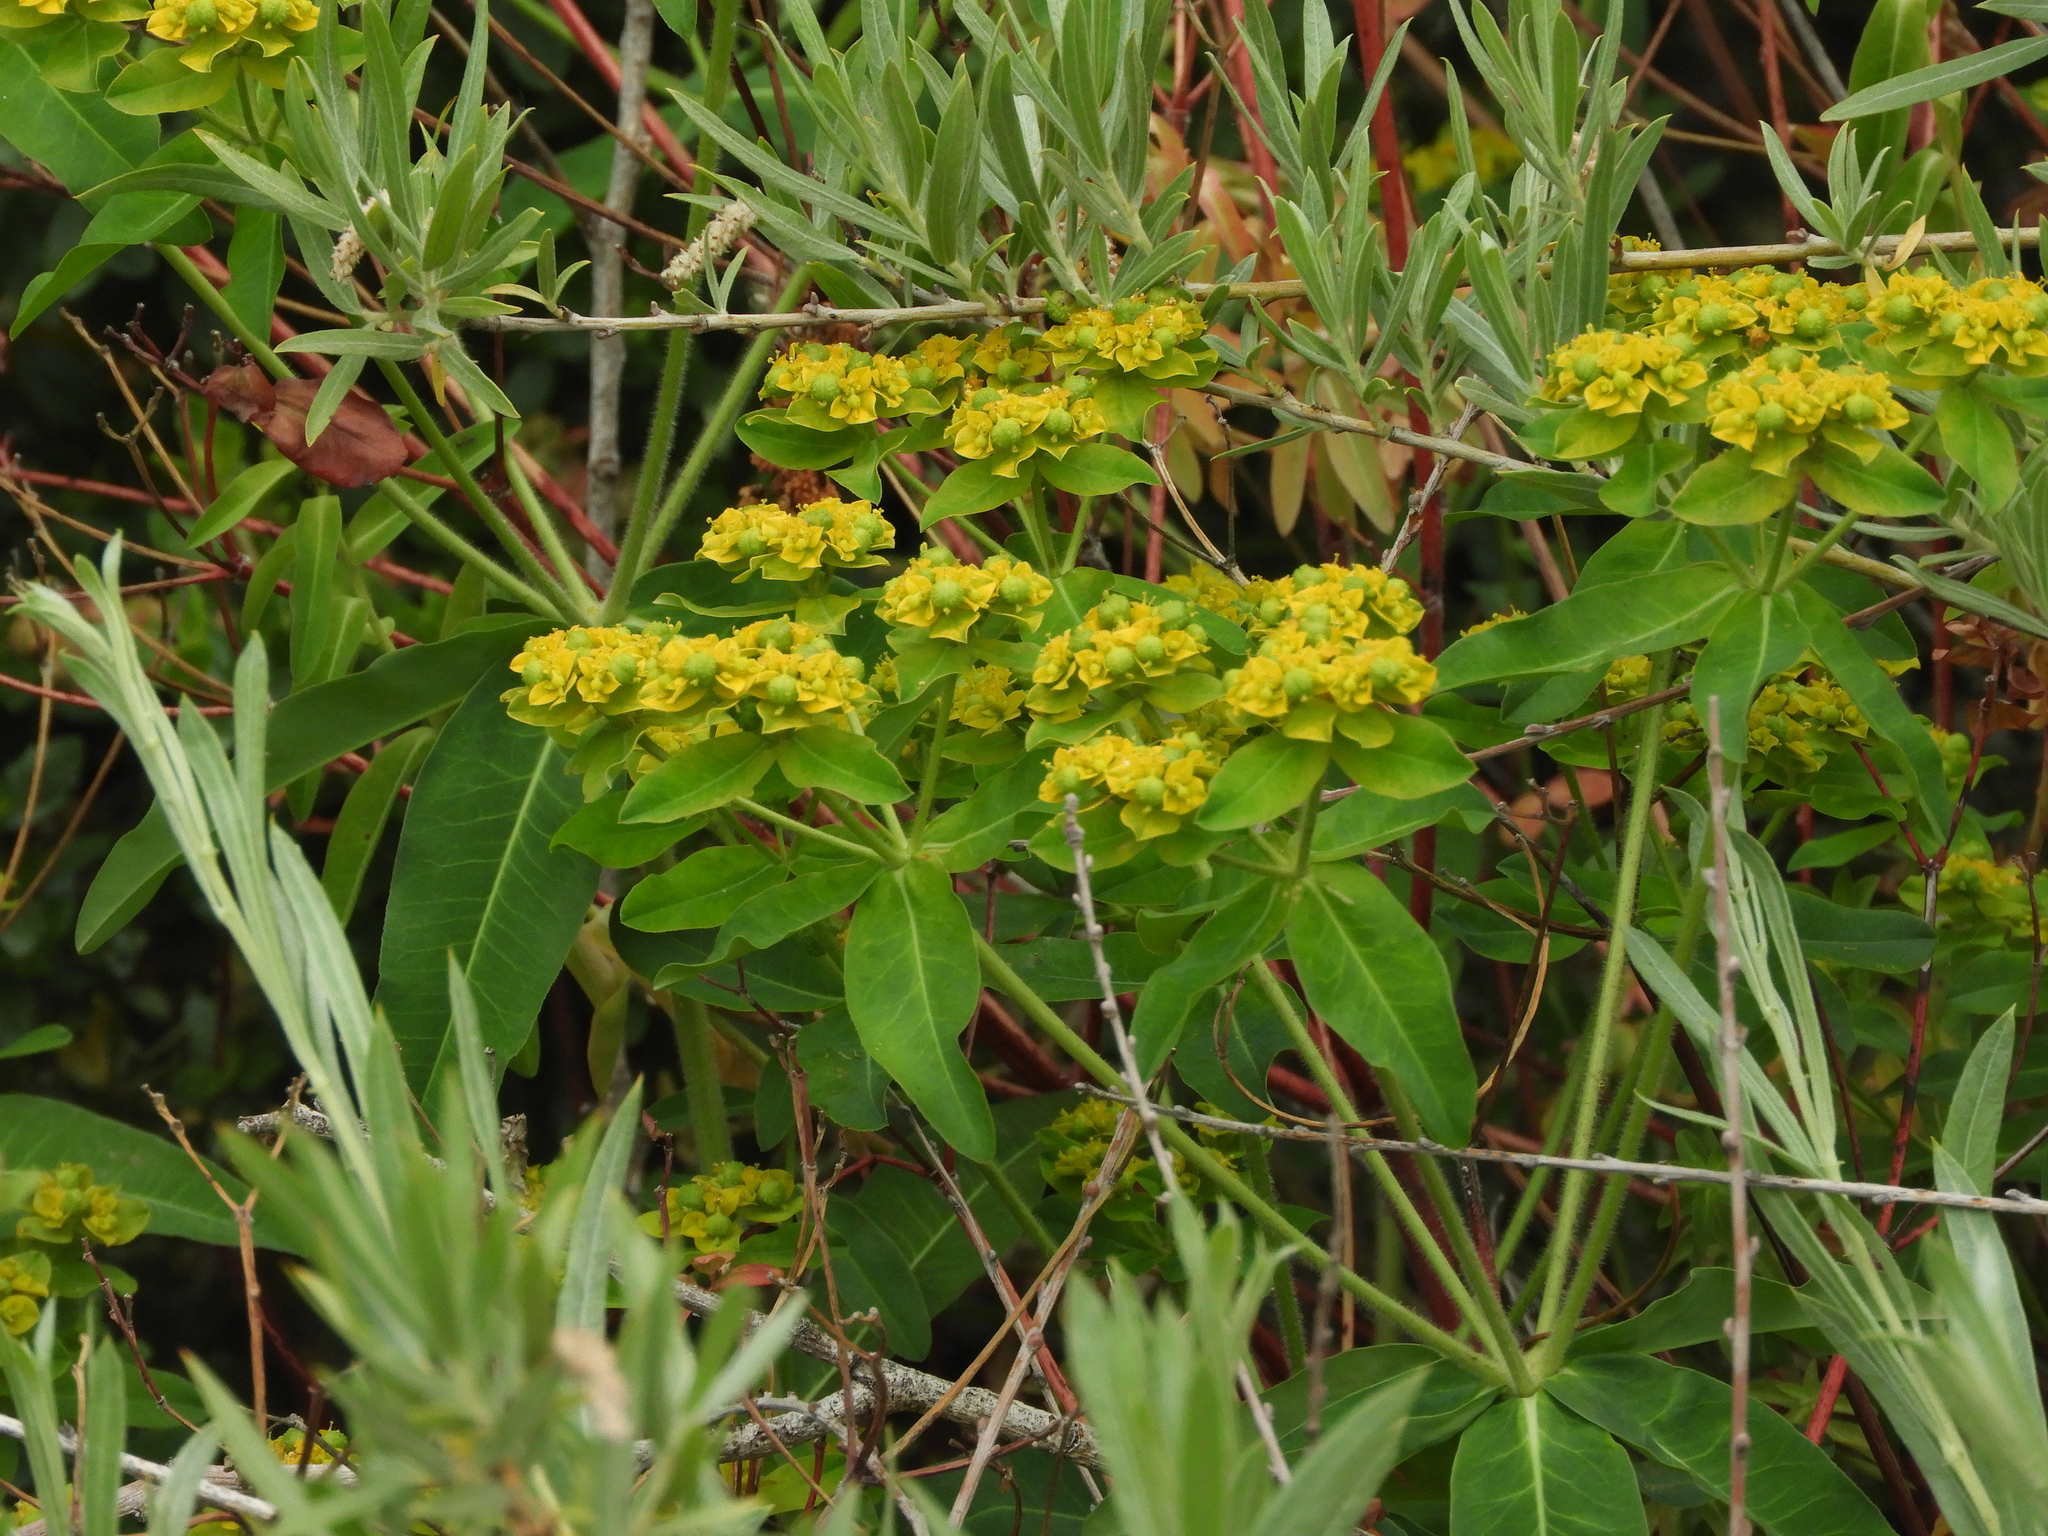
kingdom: Plantae
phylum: Tracheophyta
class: Magnoliopsida
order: Malpighiales
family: Euphorbiaceae
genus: Euphorbia
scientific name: Euphorbia oblongata
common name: Balkan spurge
